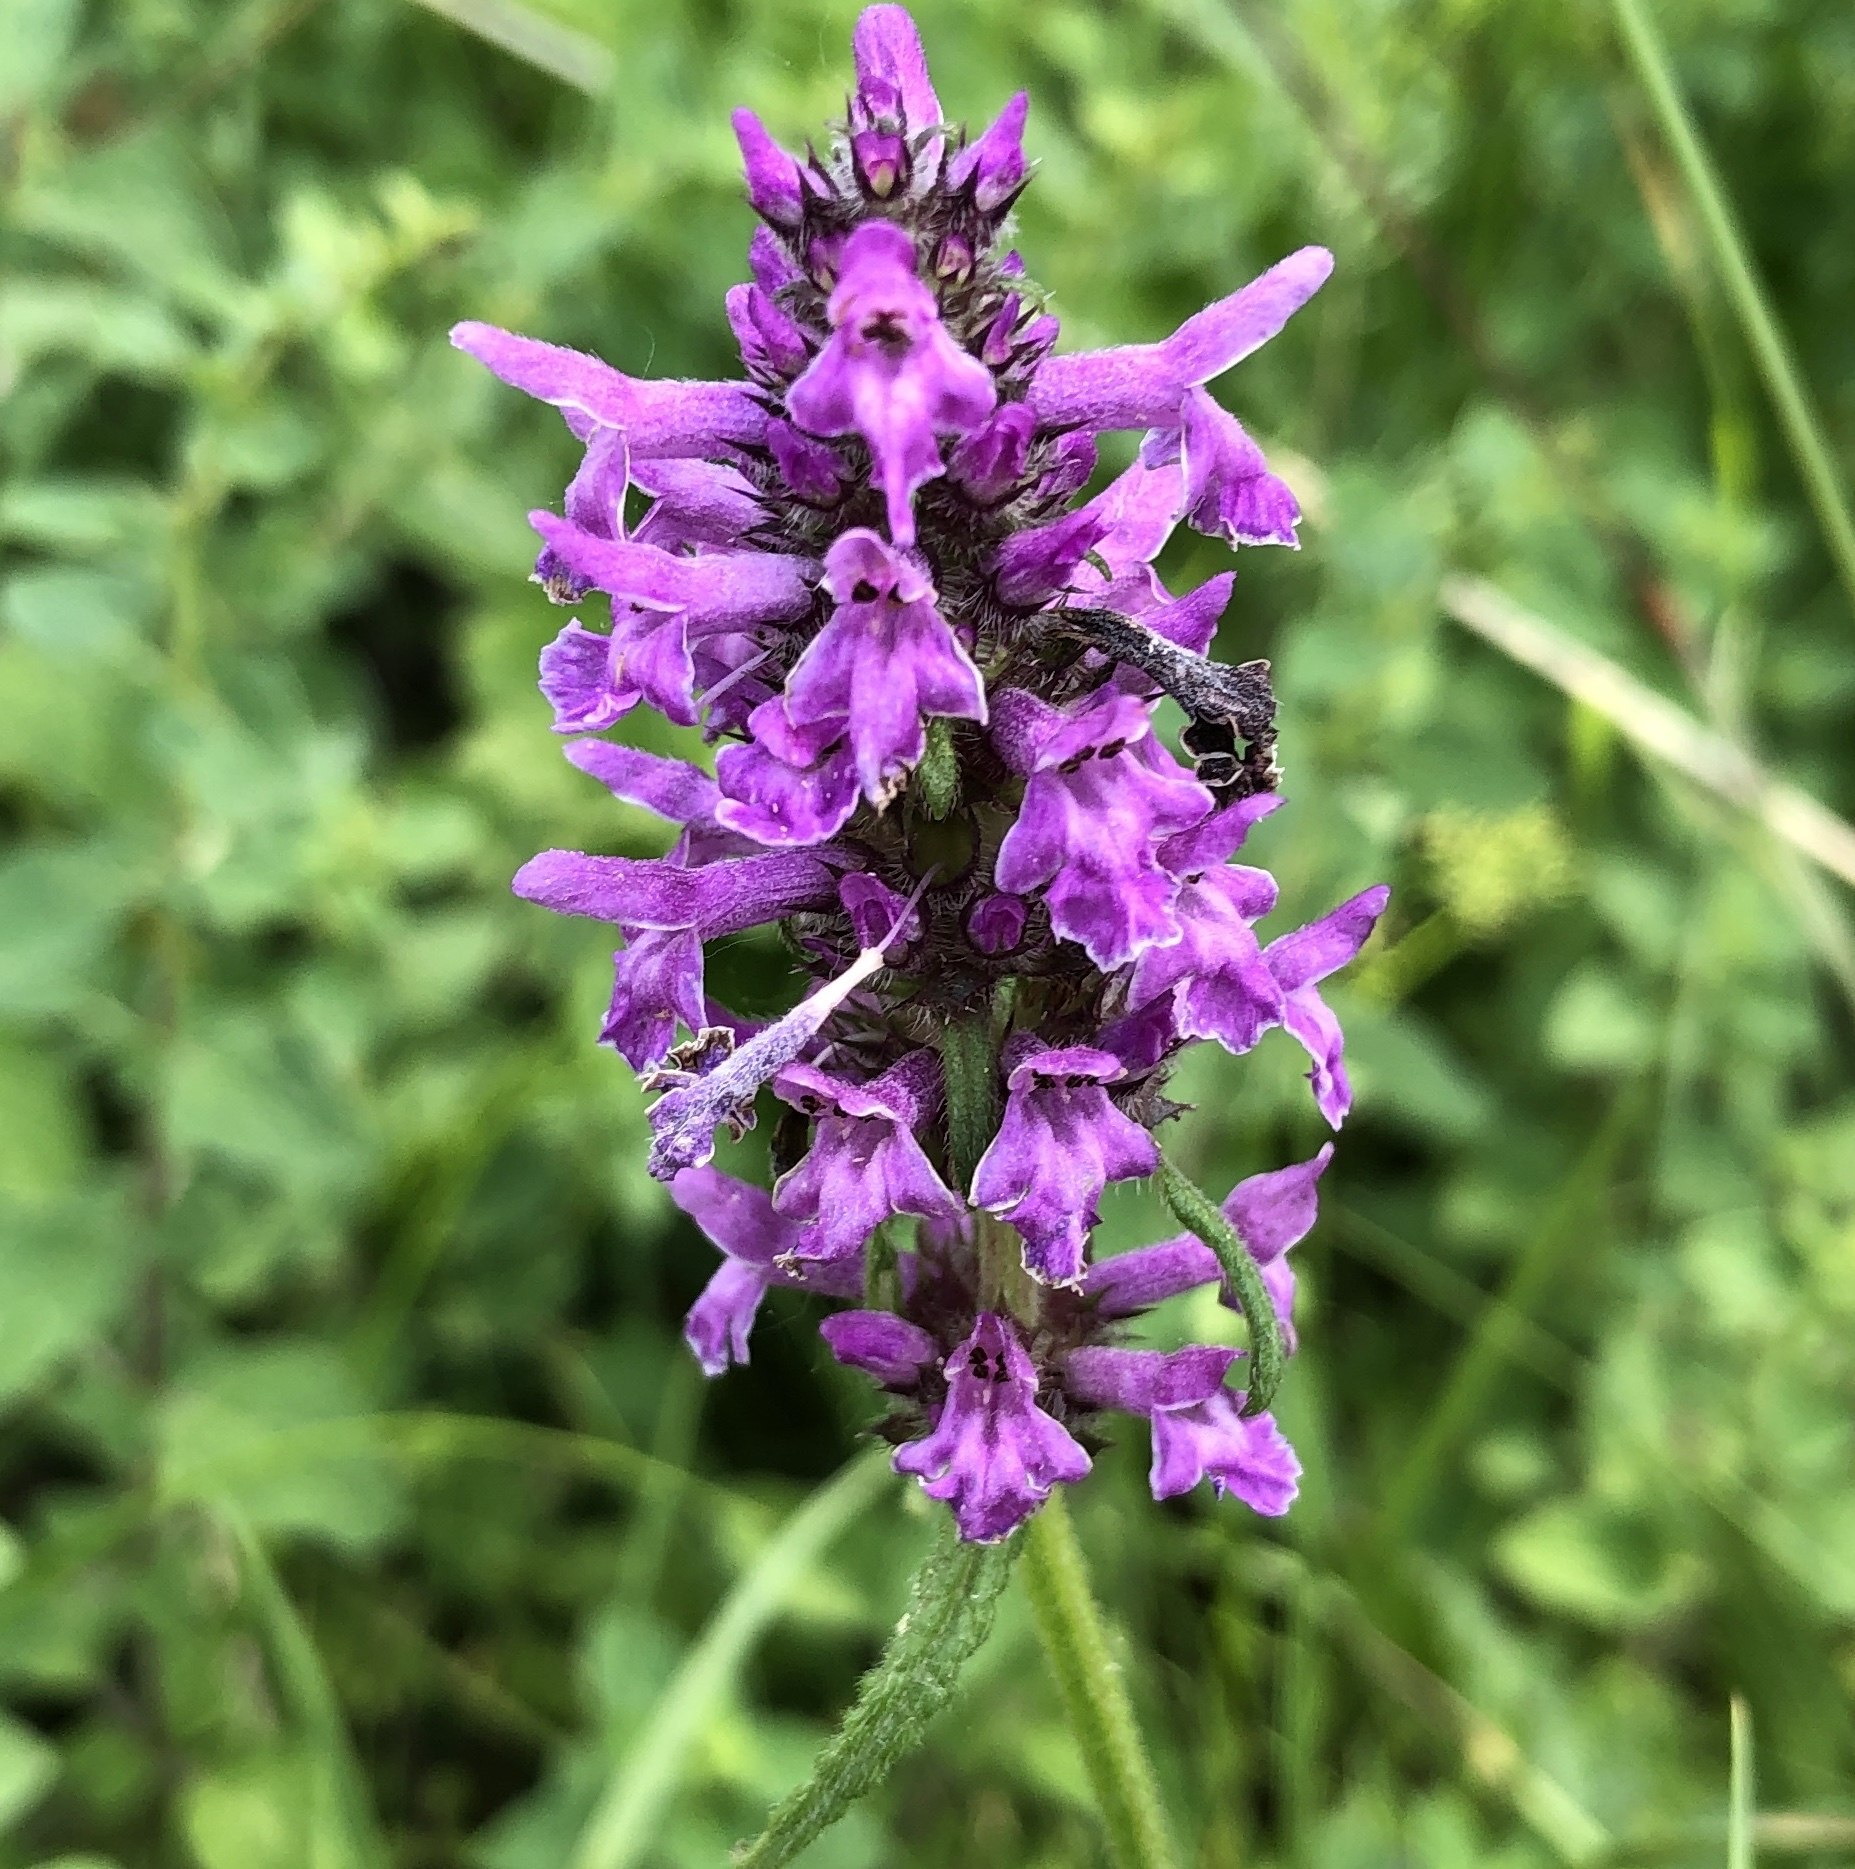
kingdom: Plantae
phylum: Tracheophyta
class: Magnoliopsida
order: Lamiales
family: Lamiaceae
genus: Betonica
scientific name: Betonica officinalis
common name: Bishop's-wort
